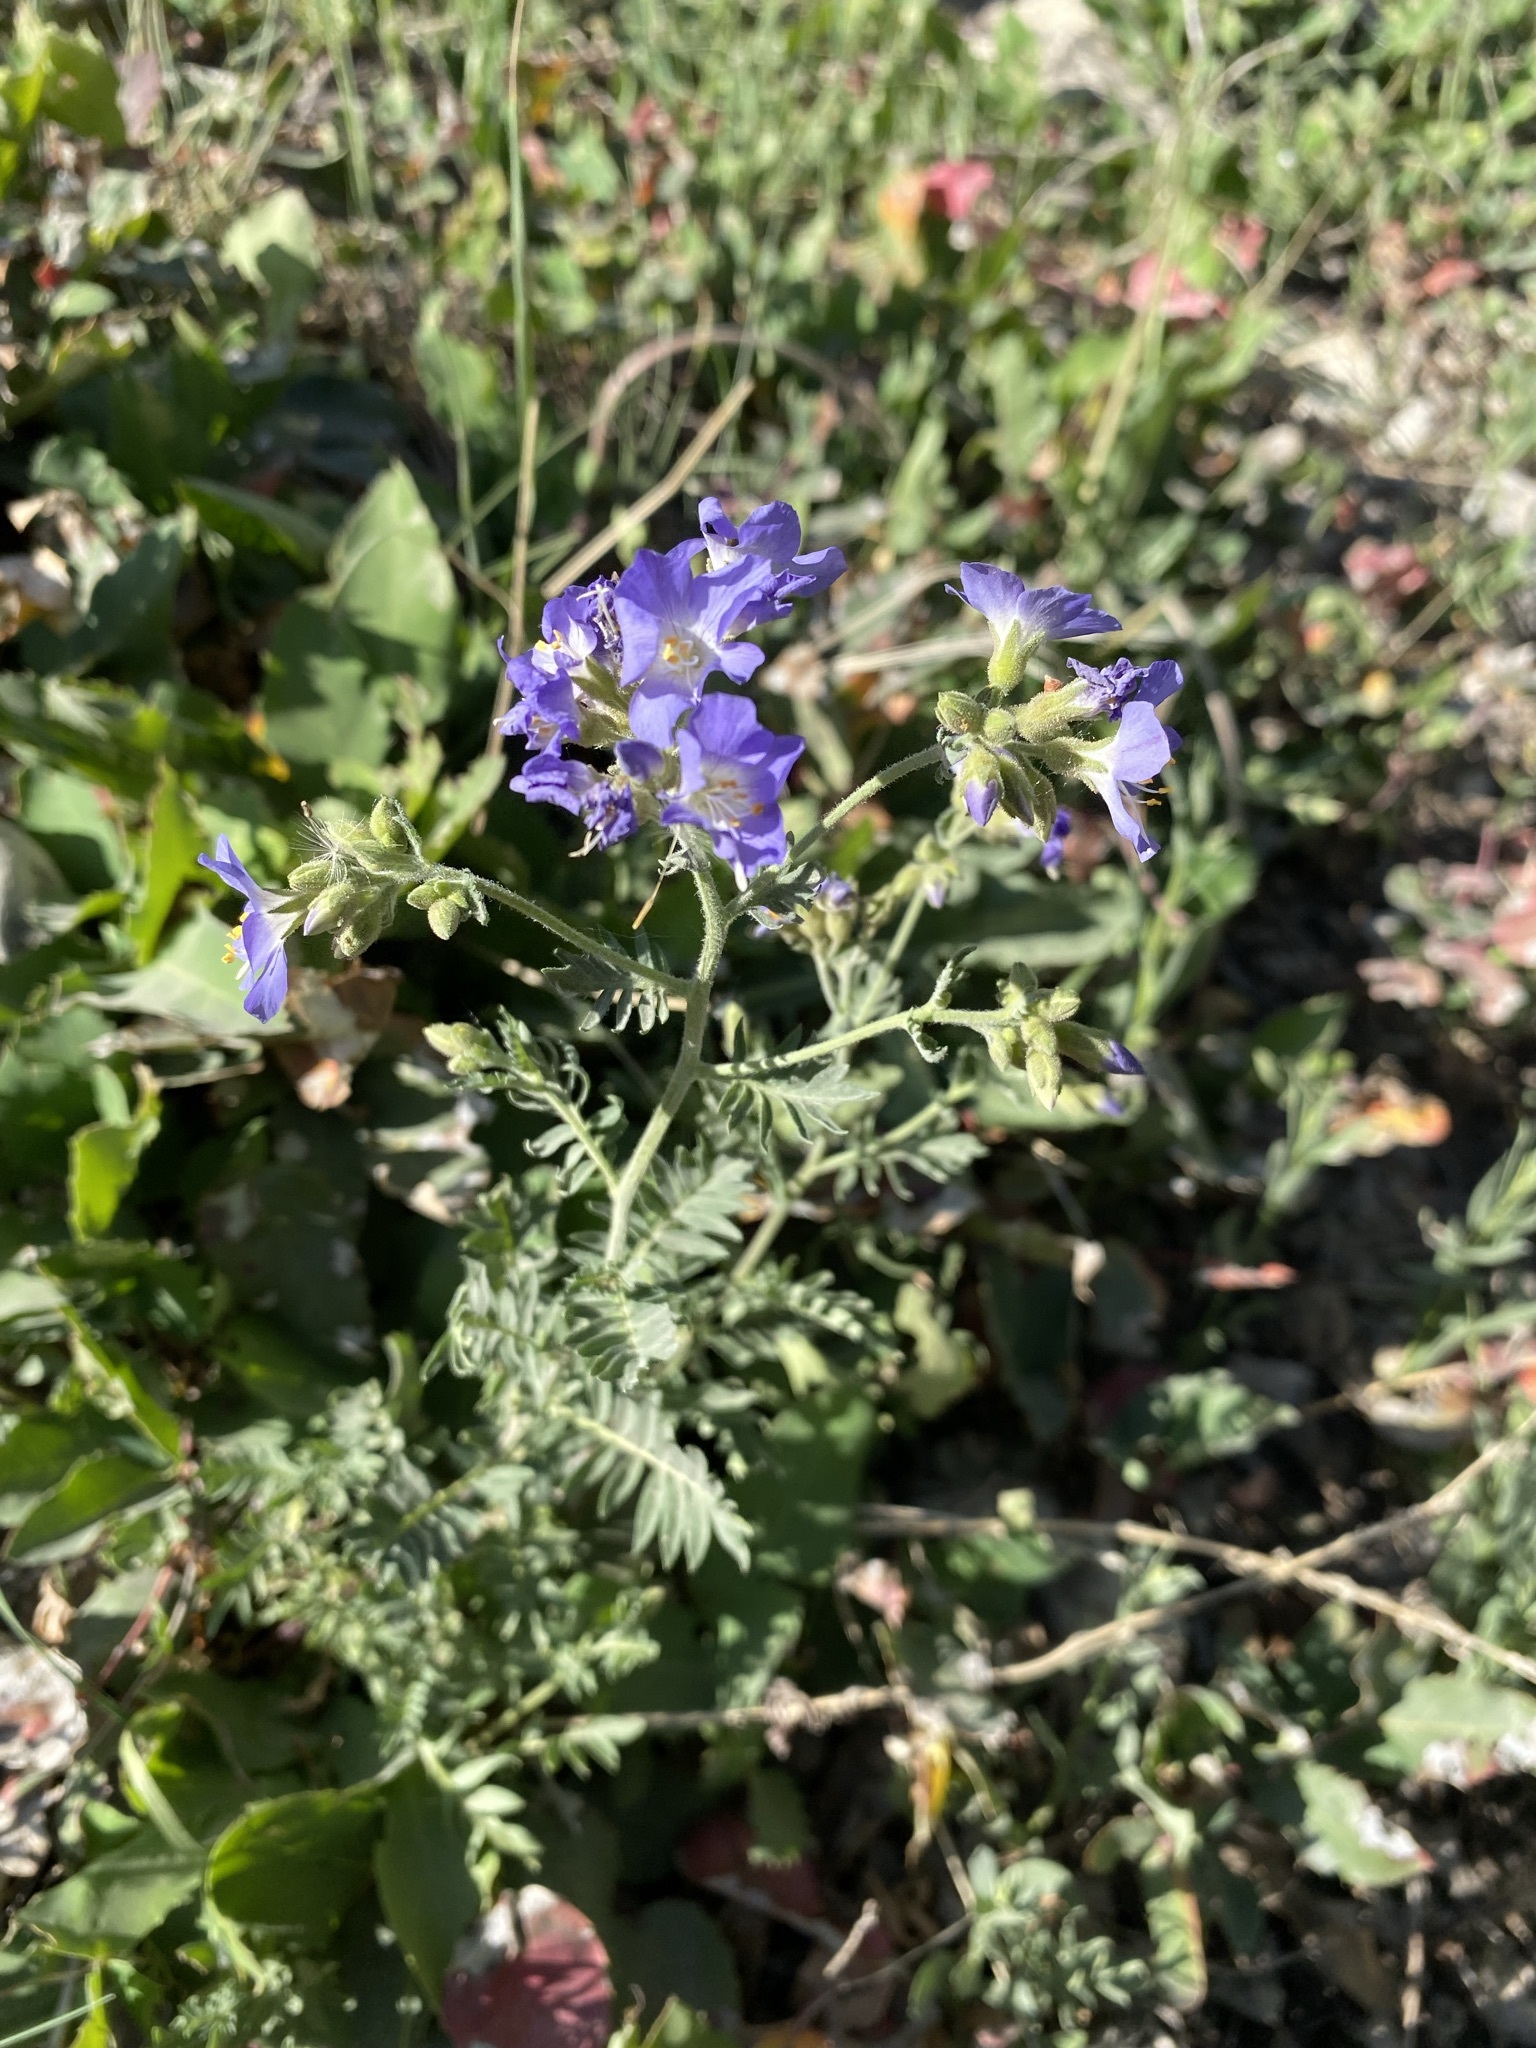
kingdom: Plantae
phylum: Tracheophyta
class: Magnoliopsida
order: Ericales
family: Polemoniaceae
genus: Polemonium
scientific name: Polemonium foliosissimum
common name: Leafy jacob's-ladder
